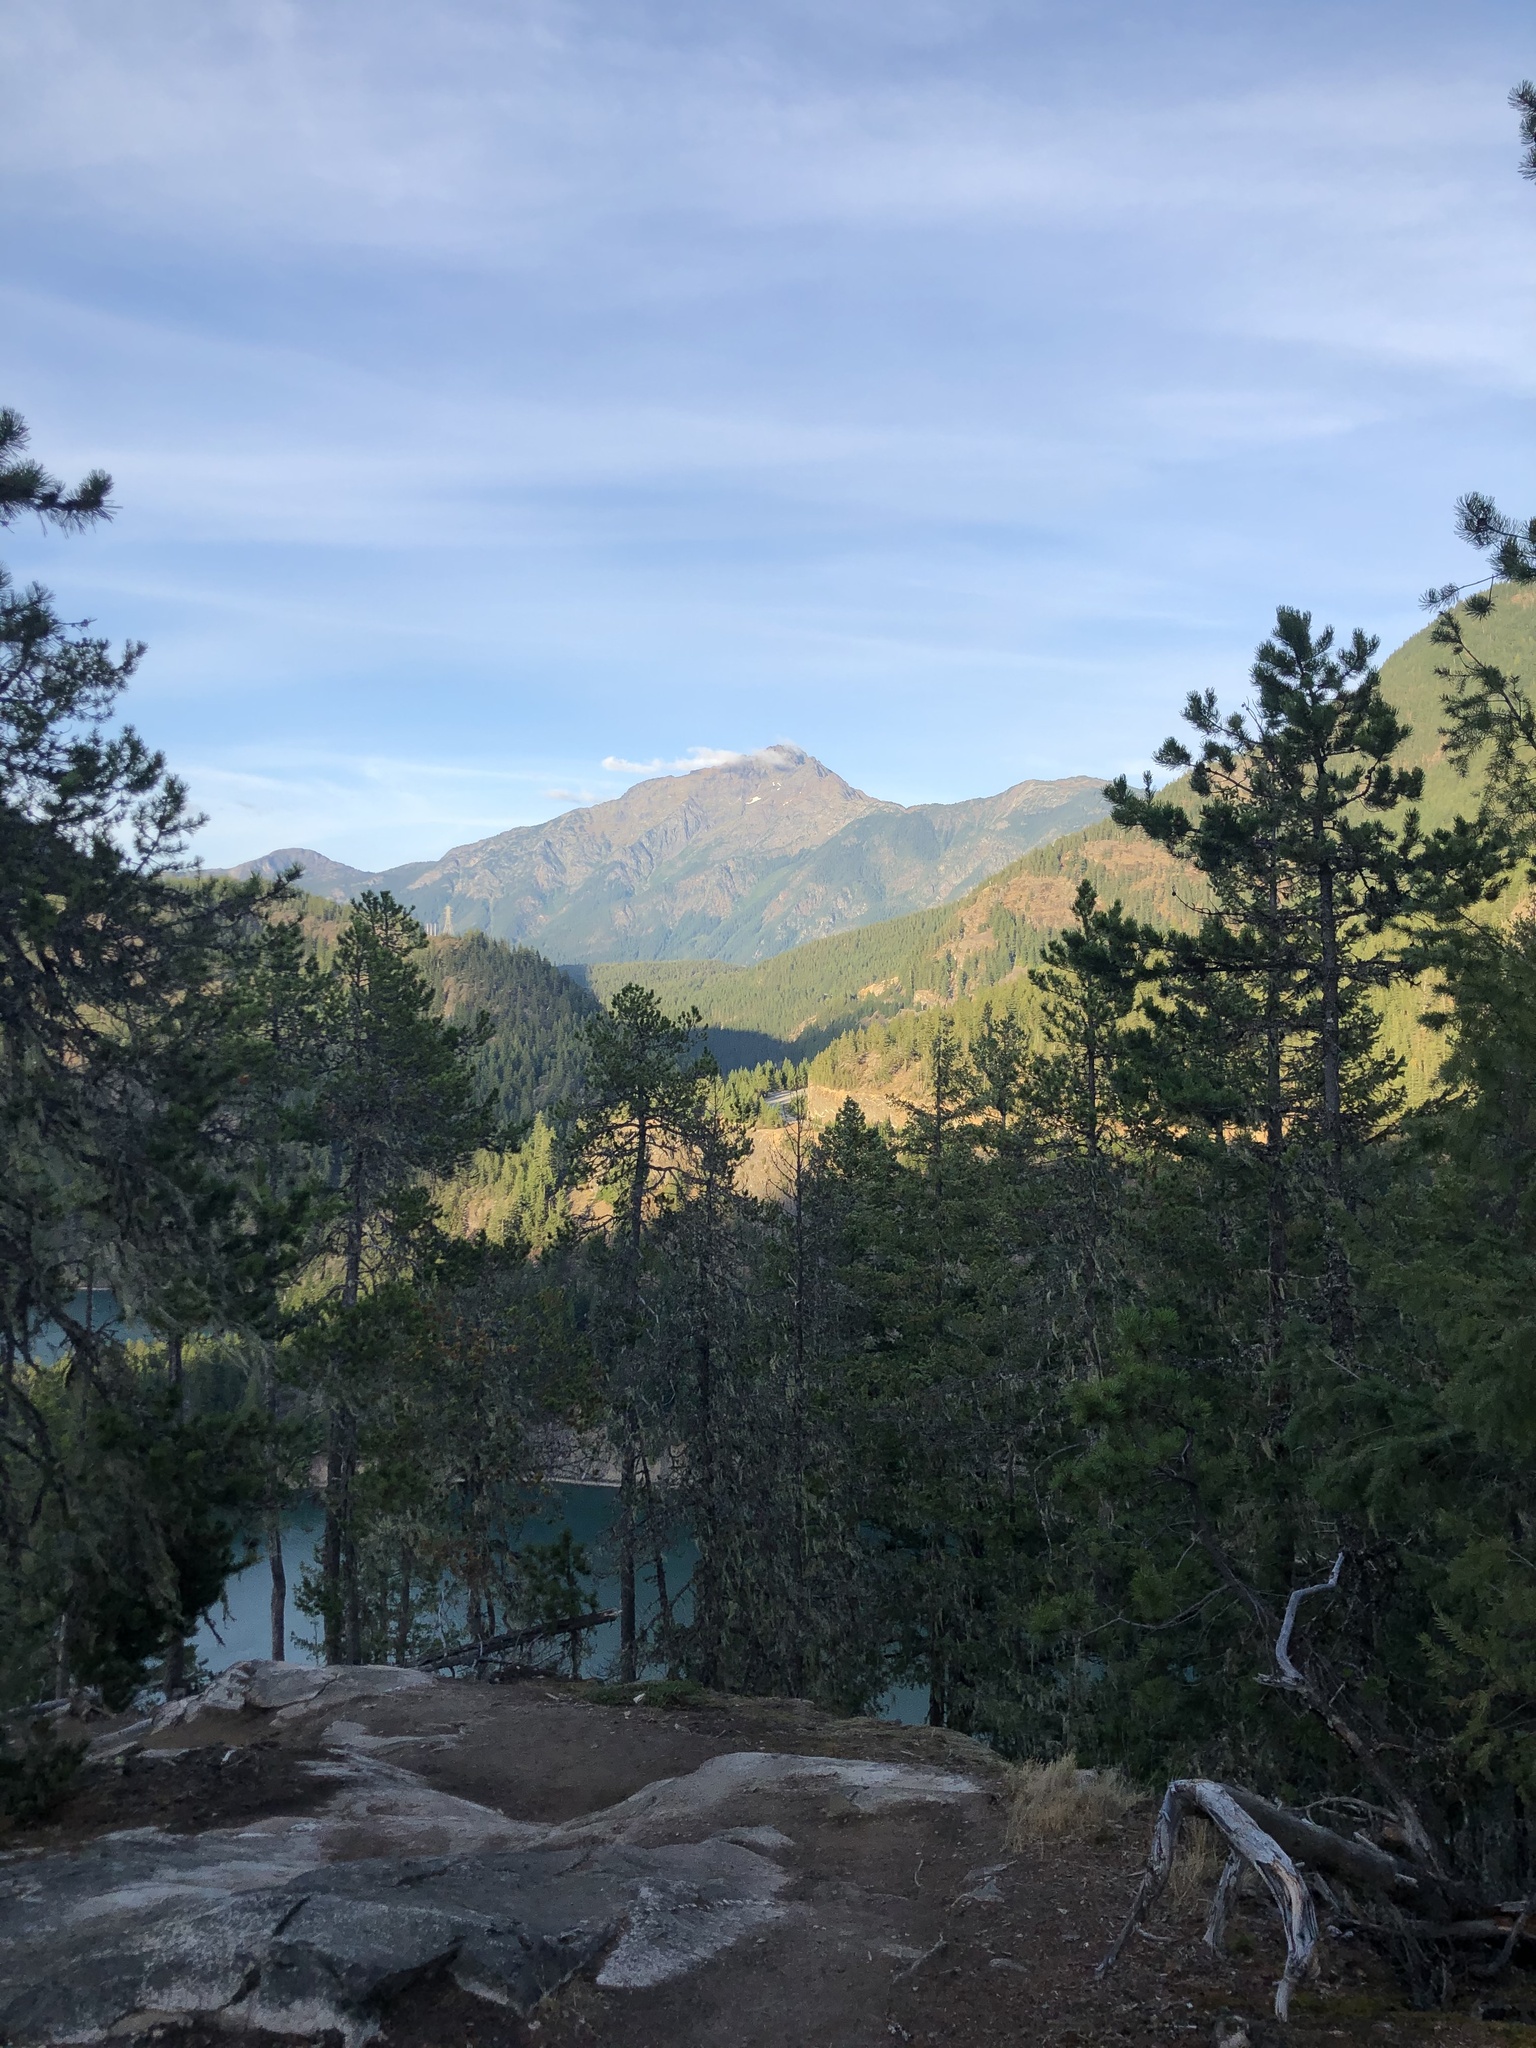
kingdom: Plantae
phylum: Tracheophyta
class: Pinopsida
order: Pinales
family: Pinaceae
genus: Pinus
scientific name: Pinus contorta
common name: Lodgepole pine
